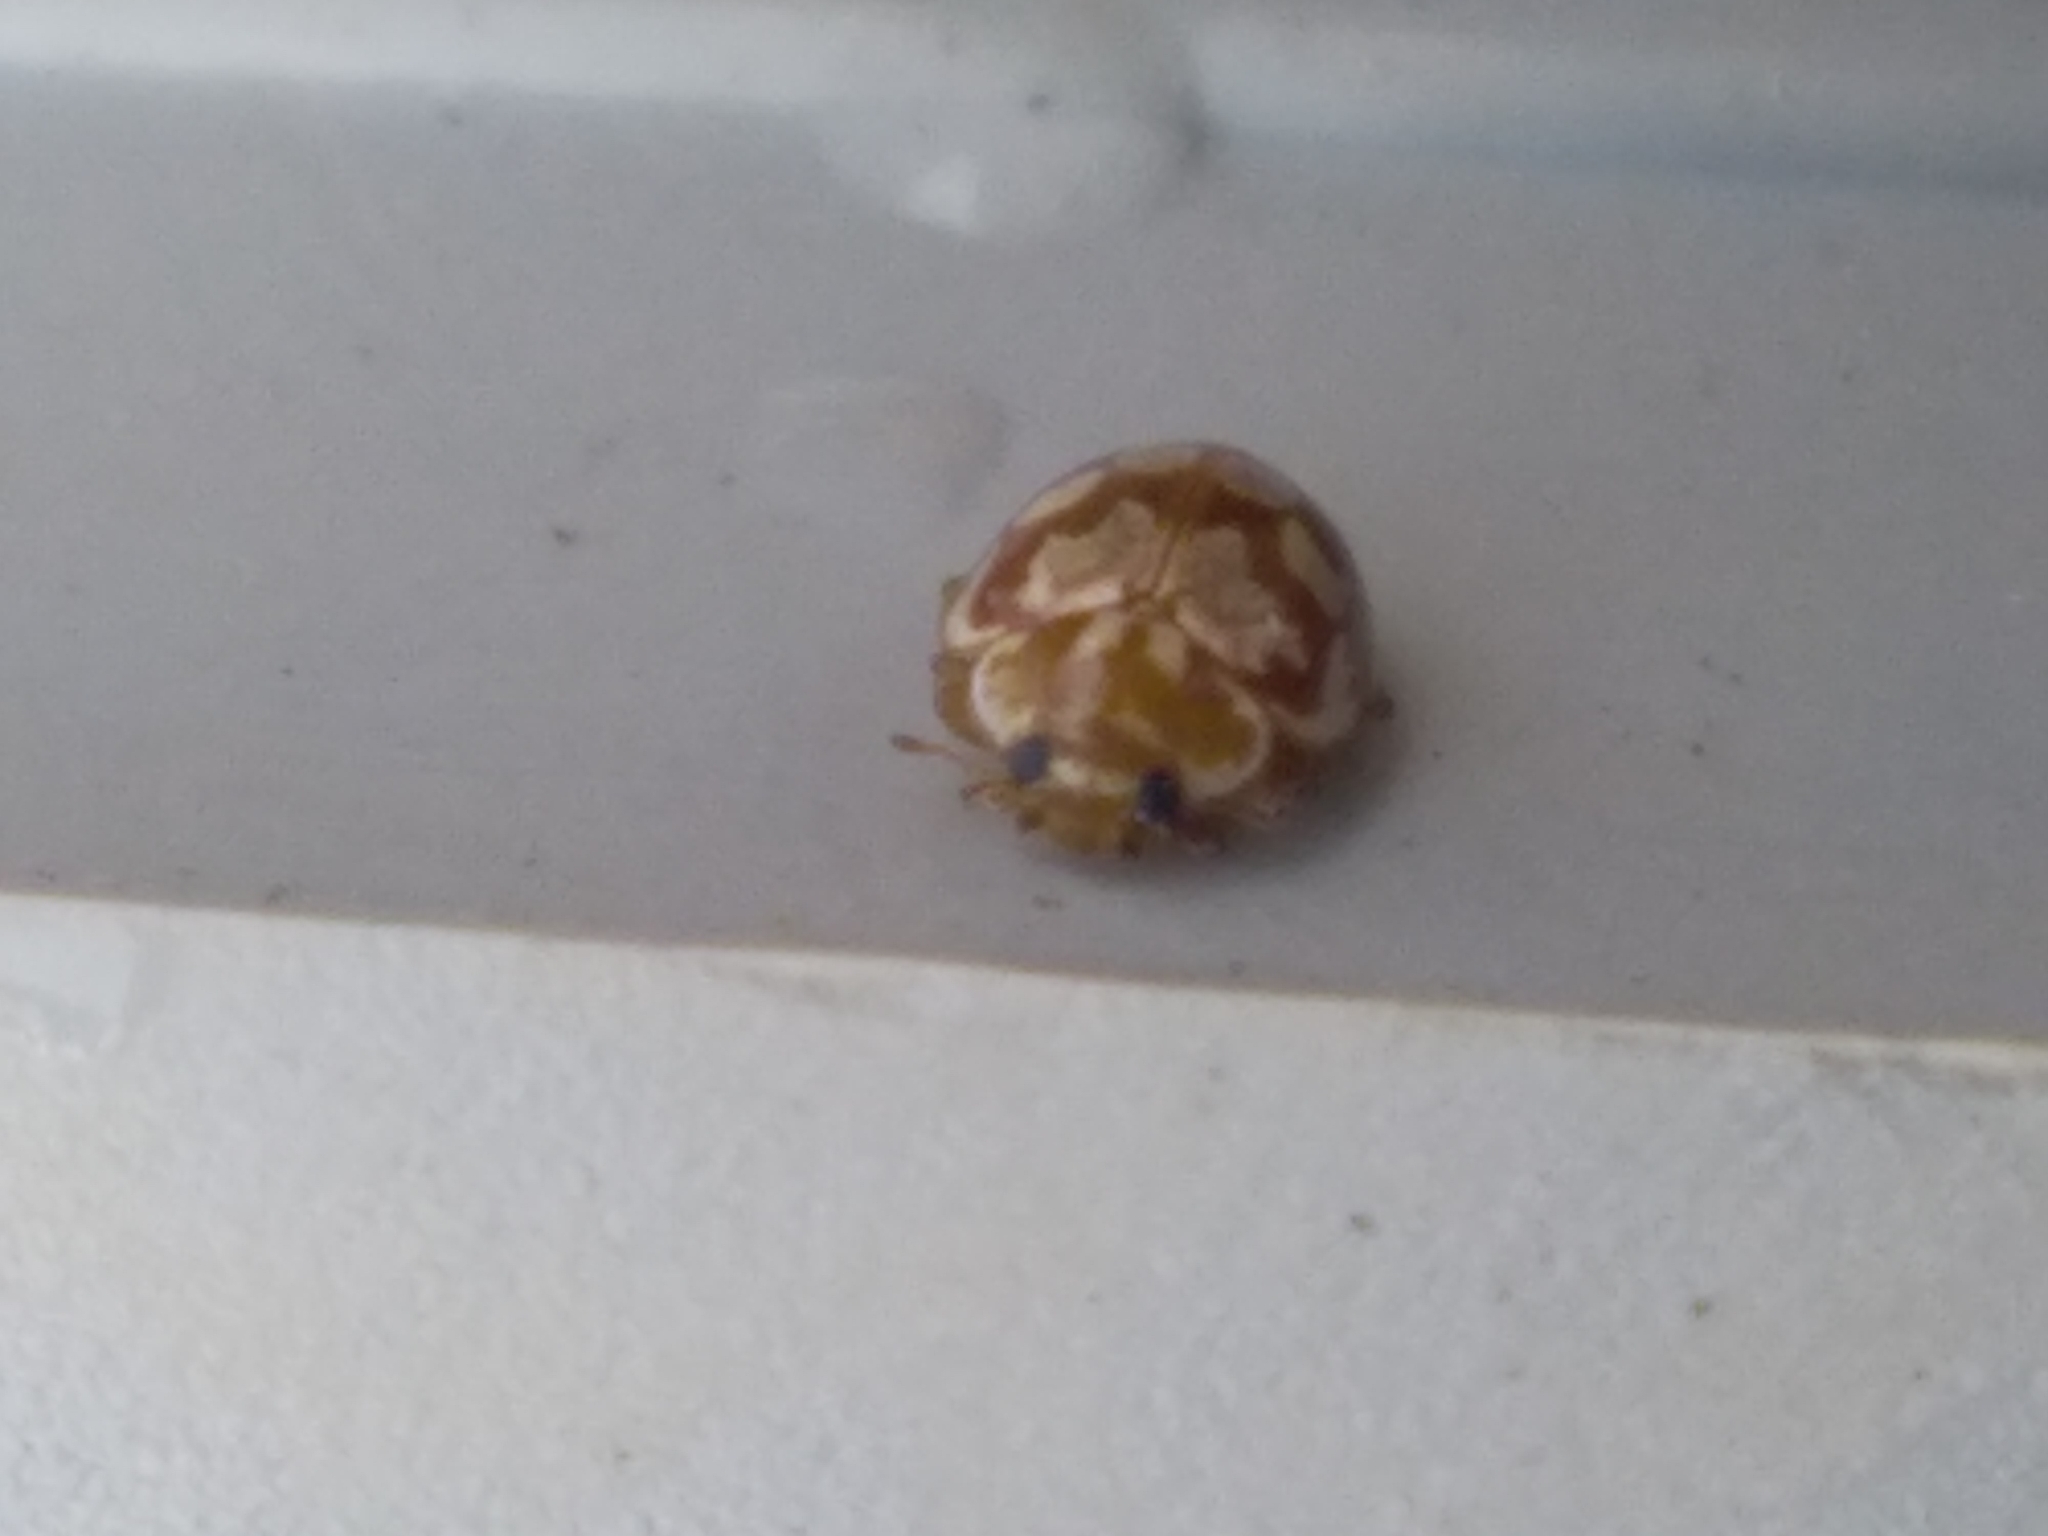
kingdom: Animalia
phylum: Arthropoda
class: Insecta
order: Coleoptera
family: Coccinellidae
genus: Myrrha
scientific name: Myrrha octodecimguttata
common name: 18-spot ladybird
